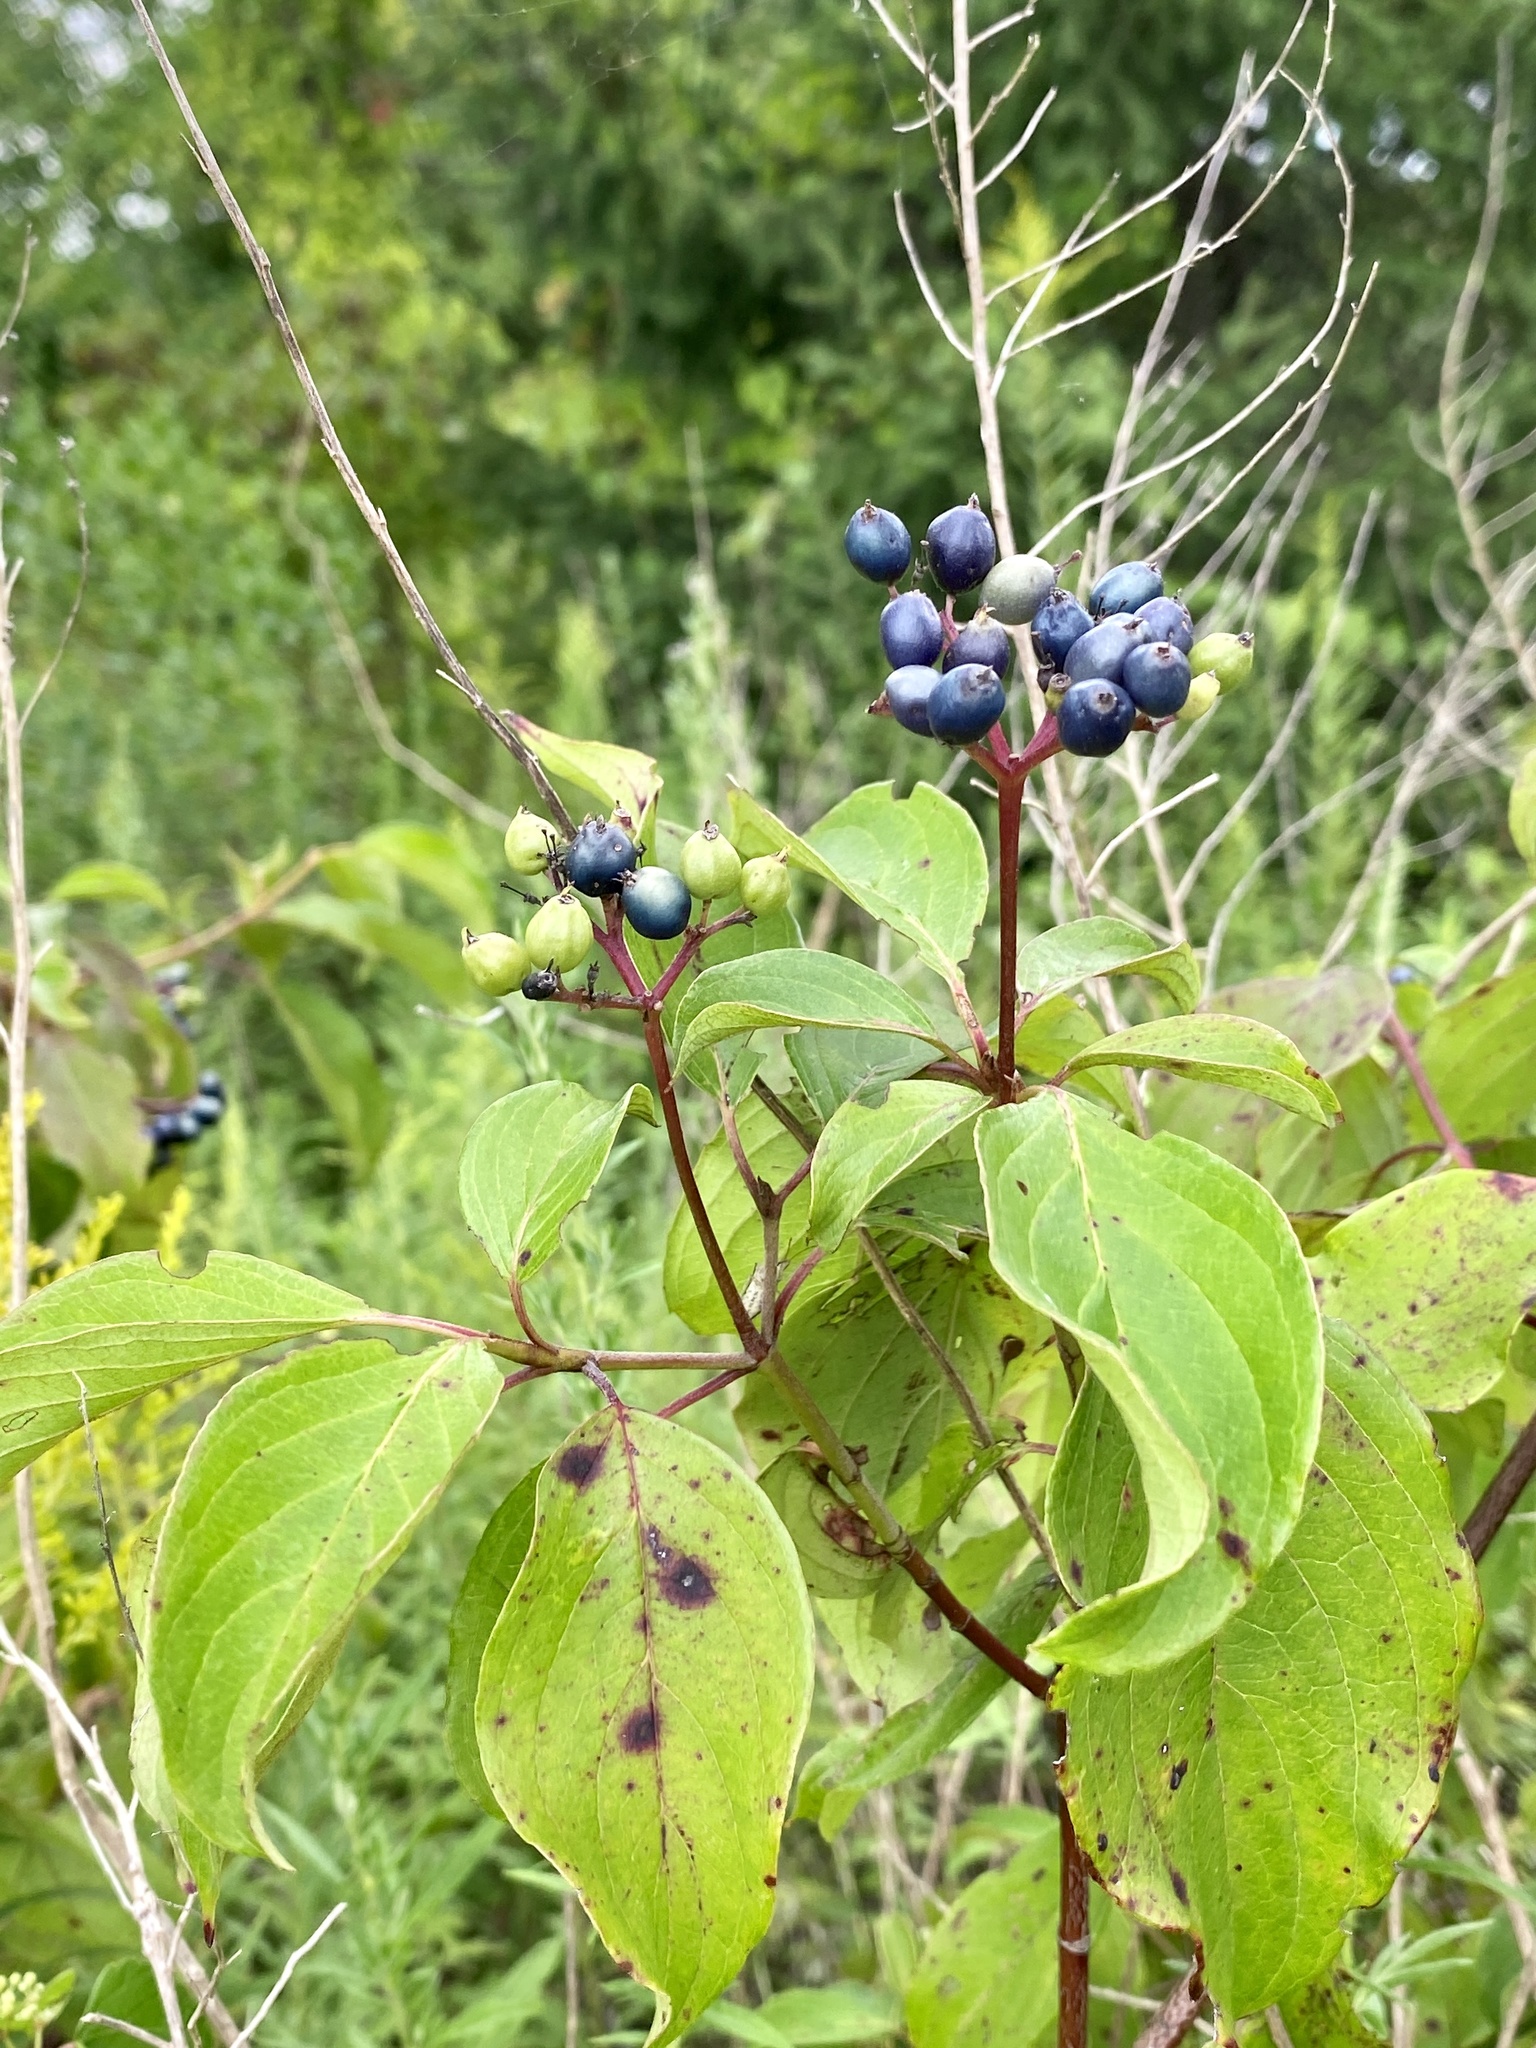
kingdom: Plantae
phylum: Tracheophyta
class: Magnoliopsida
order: Cornales
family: Cornaceae
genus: Cornus
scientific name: Cornus amomum
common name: Silky dogwood
